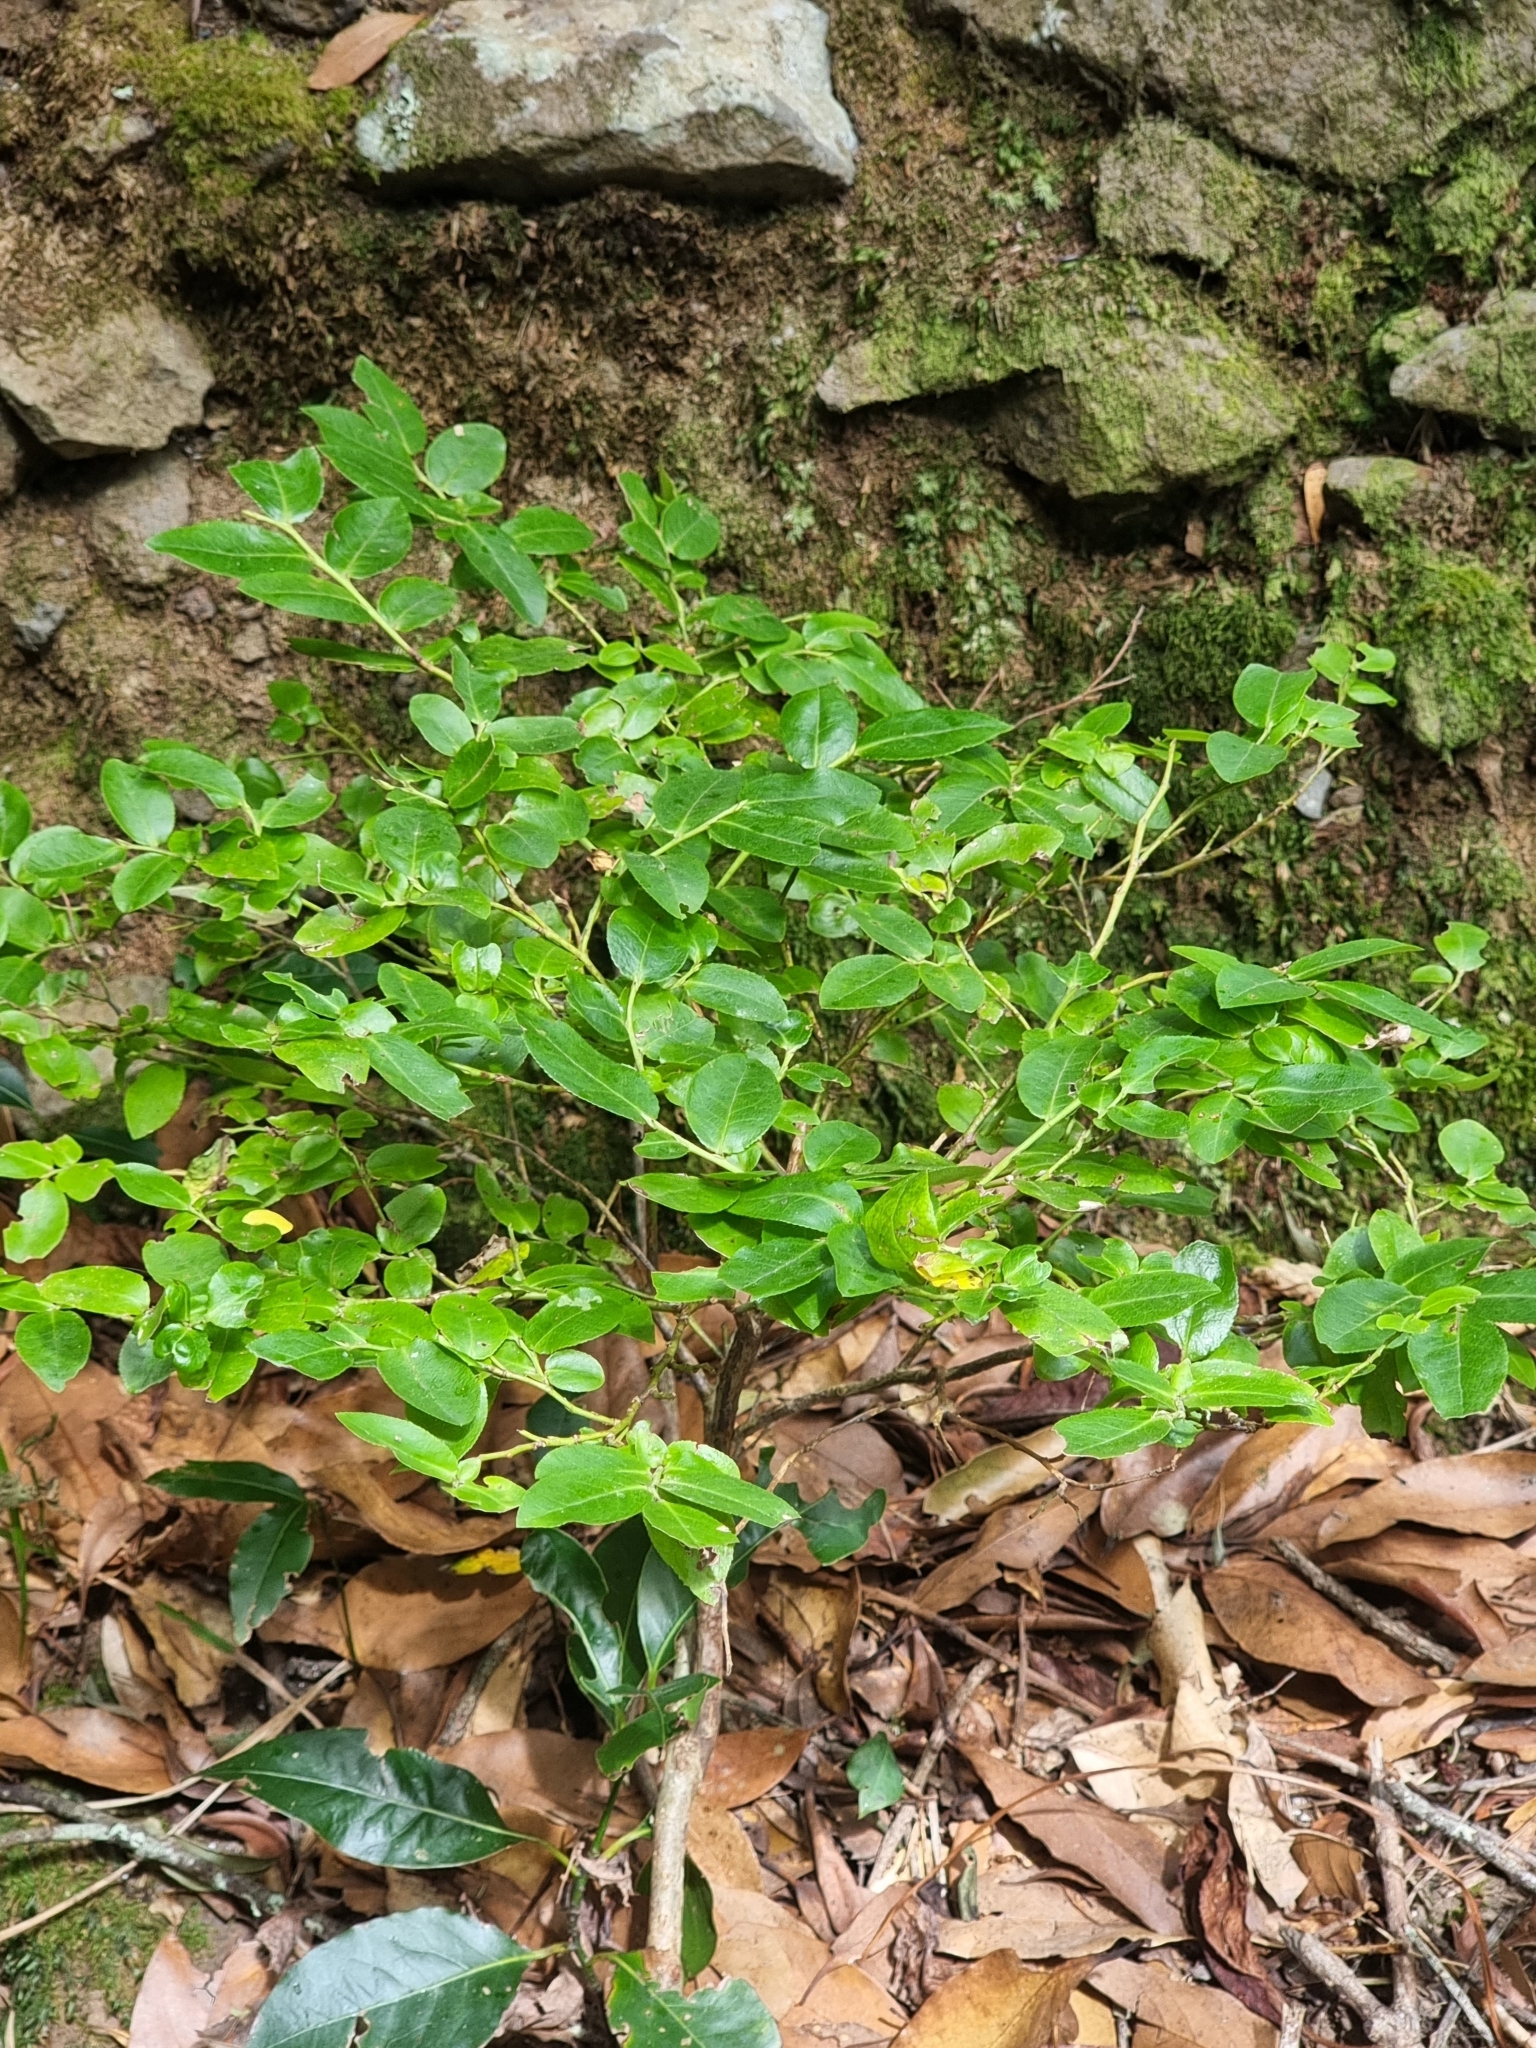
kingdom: Plantae
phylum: Tracheophyta
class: Magnoliopsida
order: Ericales
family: Ericaceae
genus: Vaccinium
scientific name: Vaccinium padifolium
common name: Madeiran blueberry
